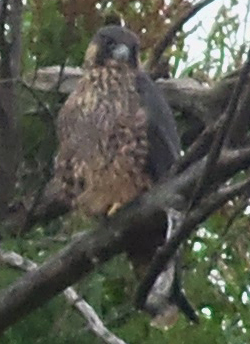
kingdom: Animalia
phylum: Chordata
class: Aves
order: Falconiformes
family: Falconidae
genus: Falco
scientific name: Falco peregrinus
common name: Peregrine falcon
